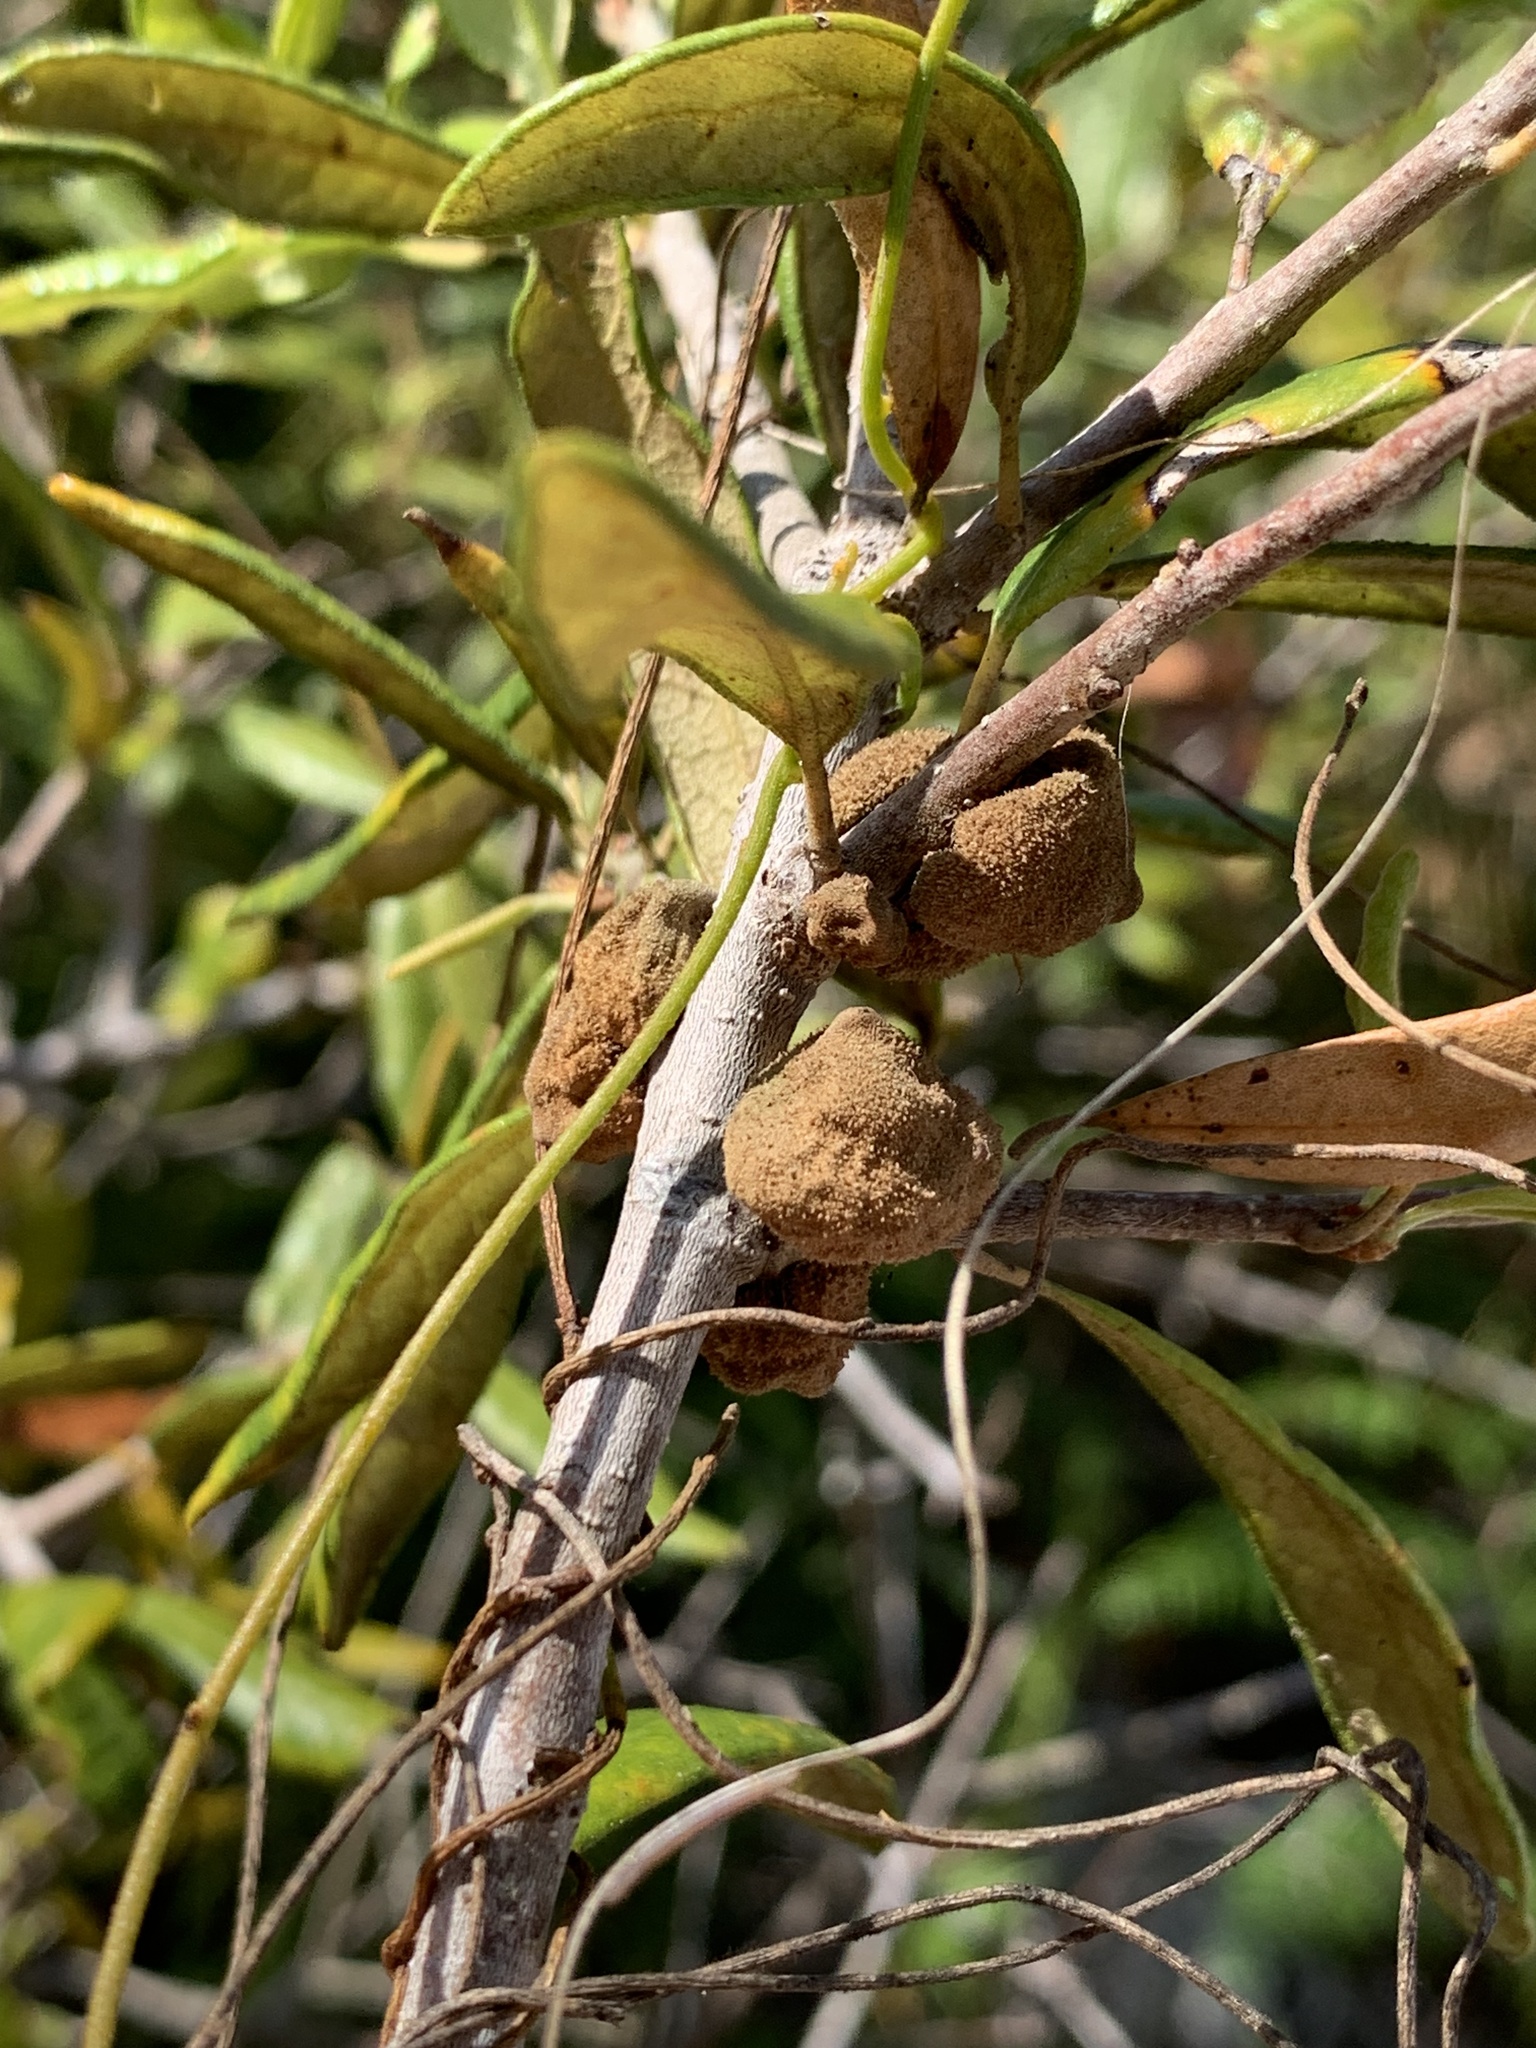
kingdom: Animalia
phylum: Arthropoda
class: Insecta
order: Hymenoptera
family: Cynipidae
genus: Disholcaspis
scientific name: Disholcaspis
